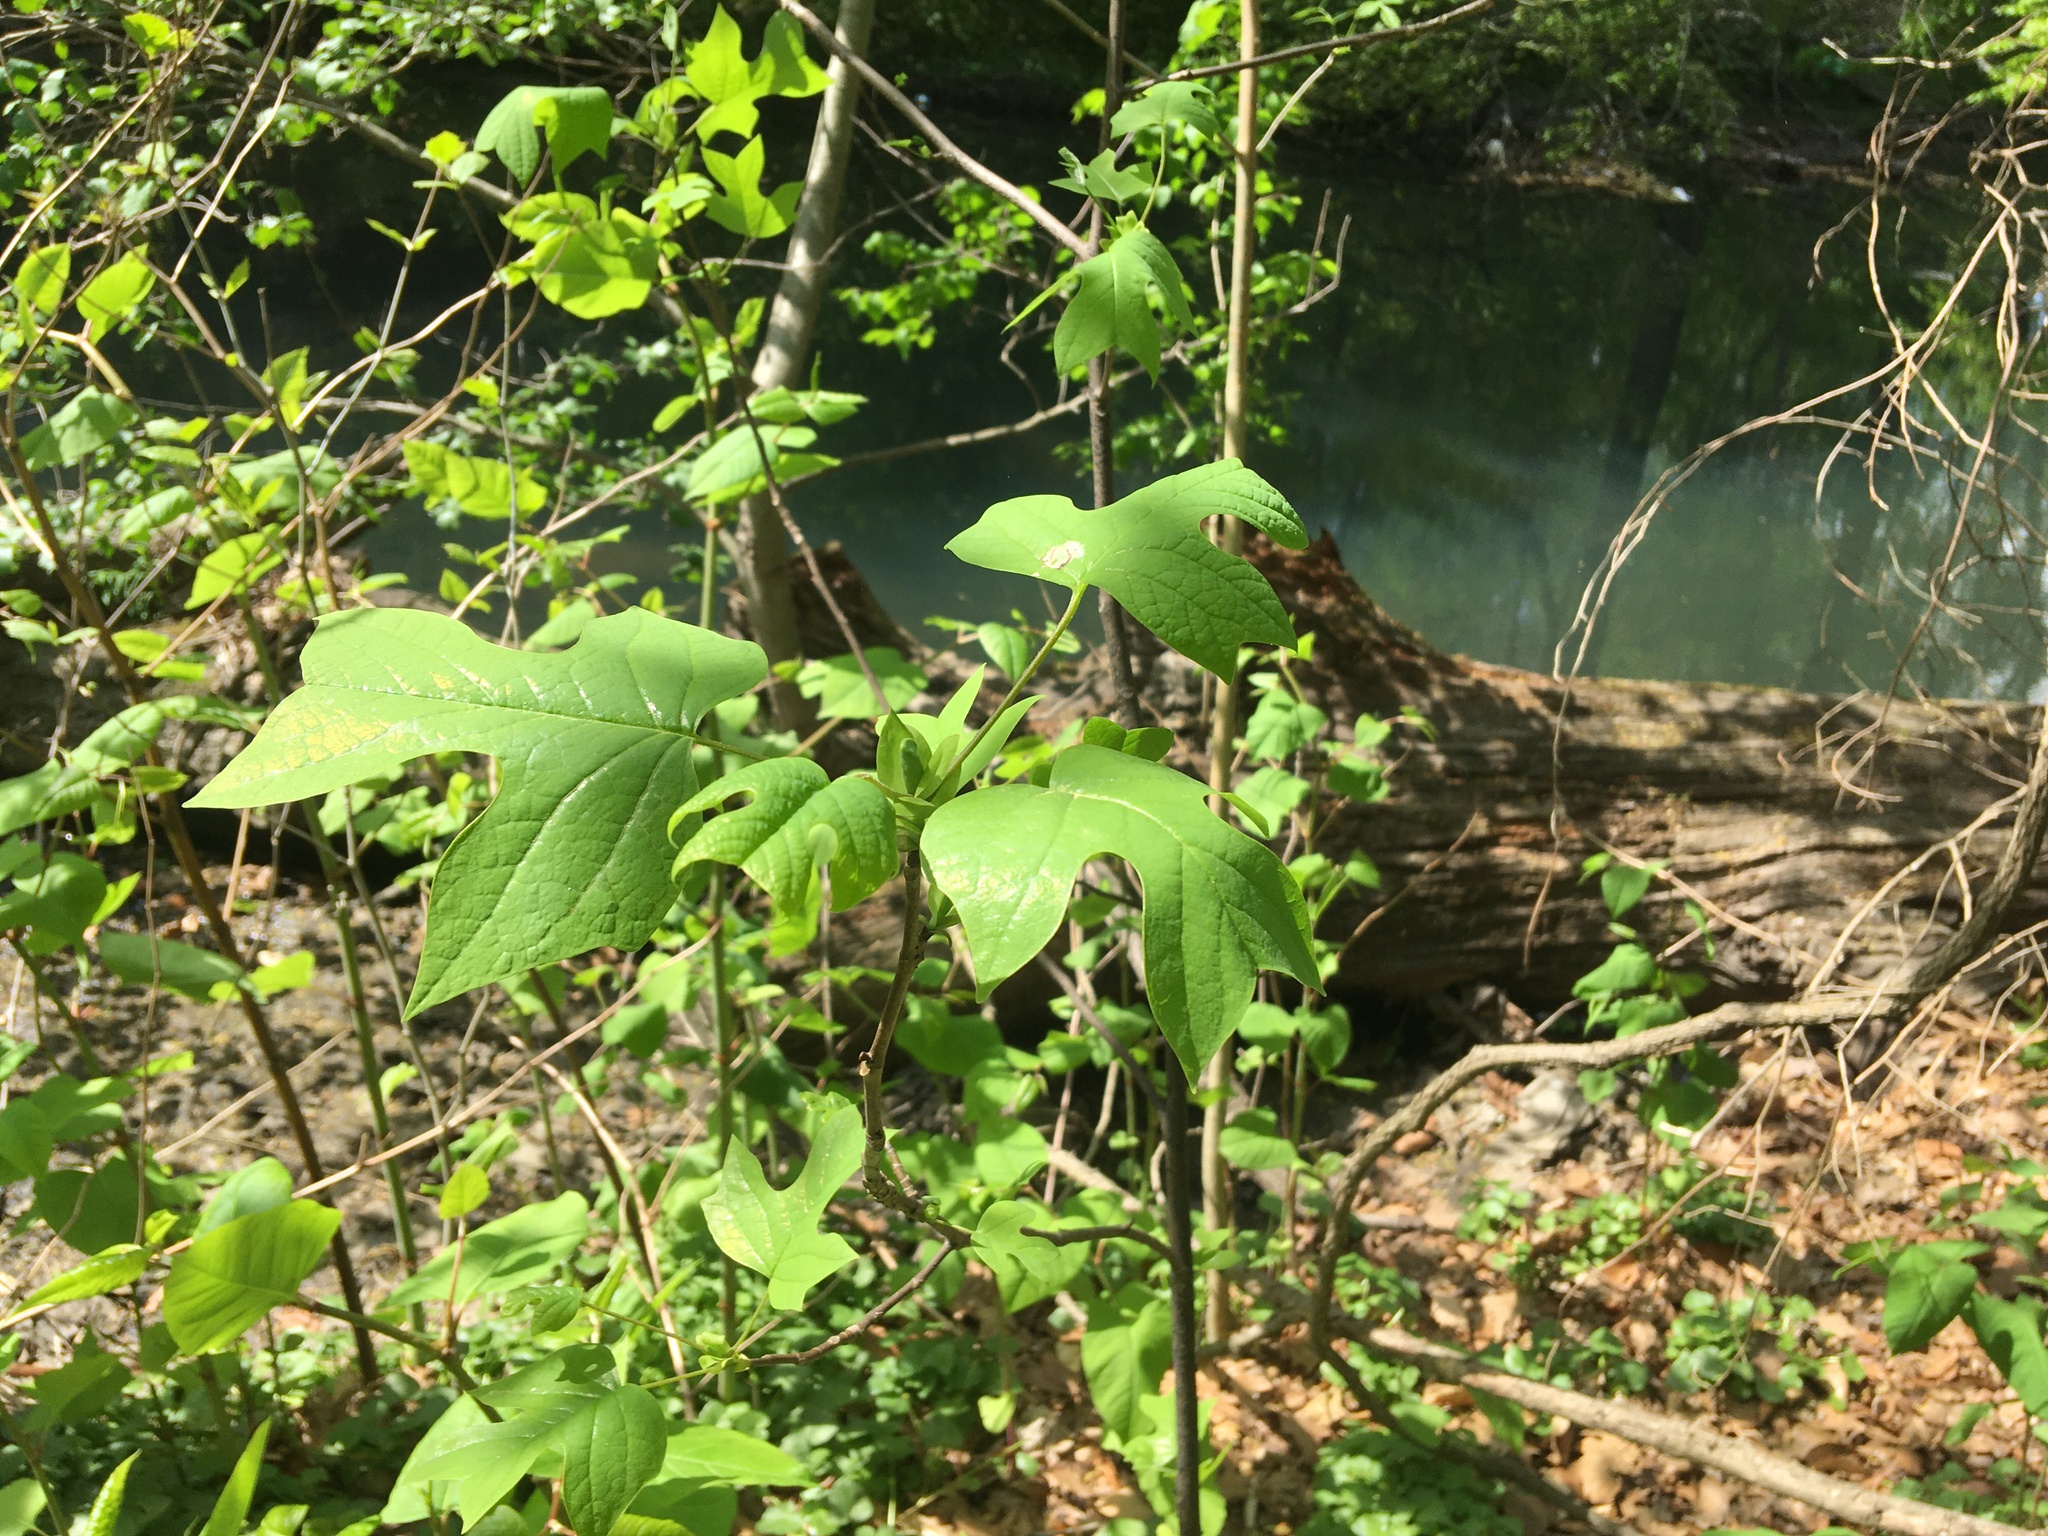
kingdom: Plantae
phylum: Tracheophyta
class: Magnoliopsida
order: Magnoliales
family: Magnoliaceae
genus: Liriodendron
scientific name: Liriodendron tulipifera
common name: Tulip tree
